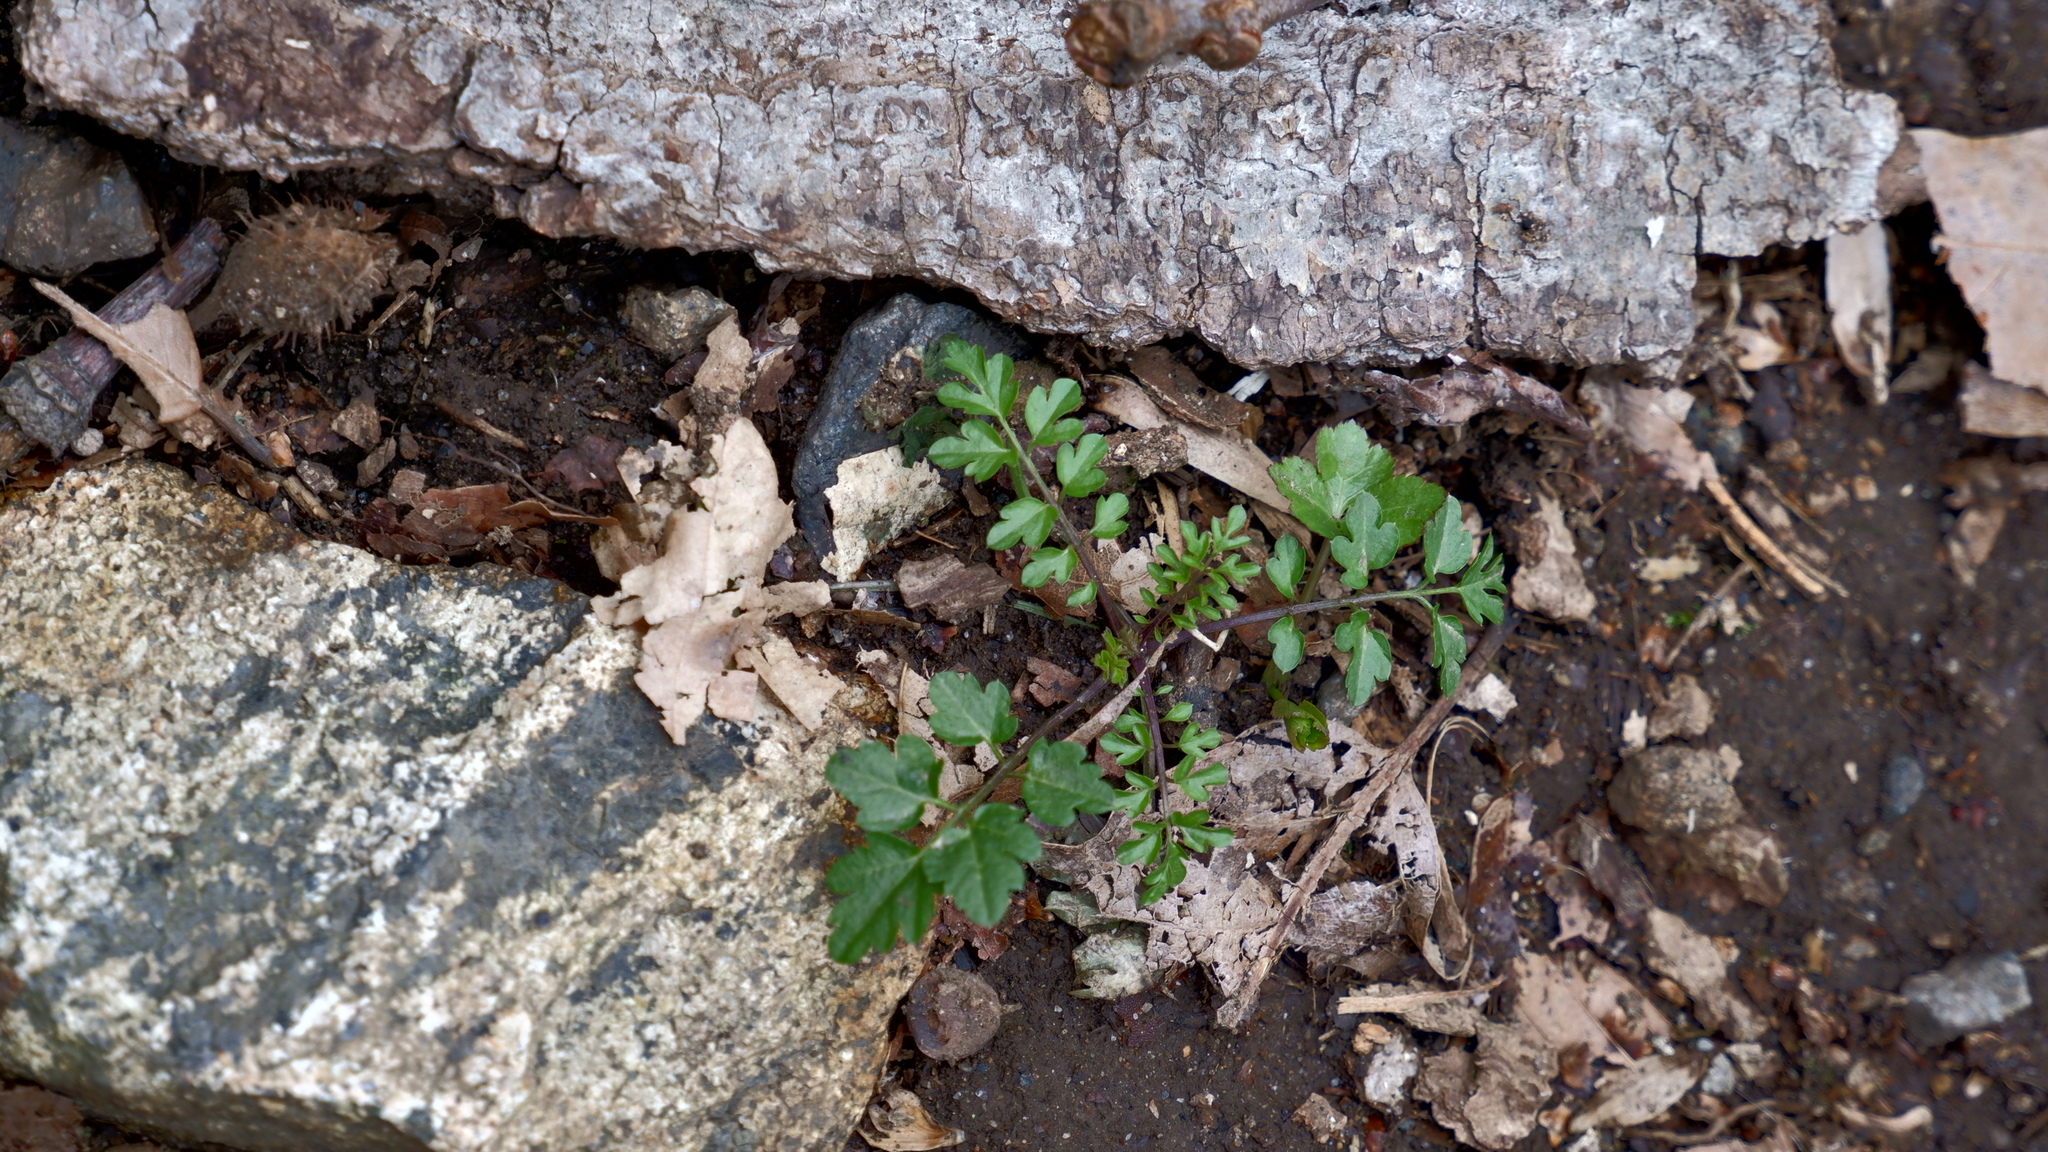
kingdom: Plantae
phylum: Tracheophyta
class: Magnoliopsida
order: Brassicales
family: Brassicaceae
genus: Cardamine
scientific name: Cardamine impatiens
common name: Narrow-leaved bitter-cress
